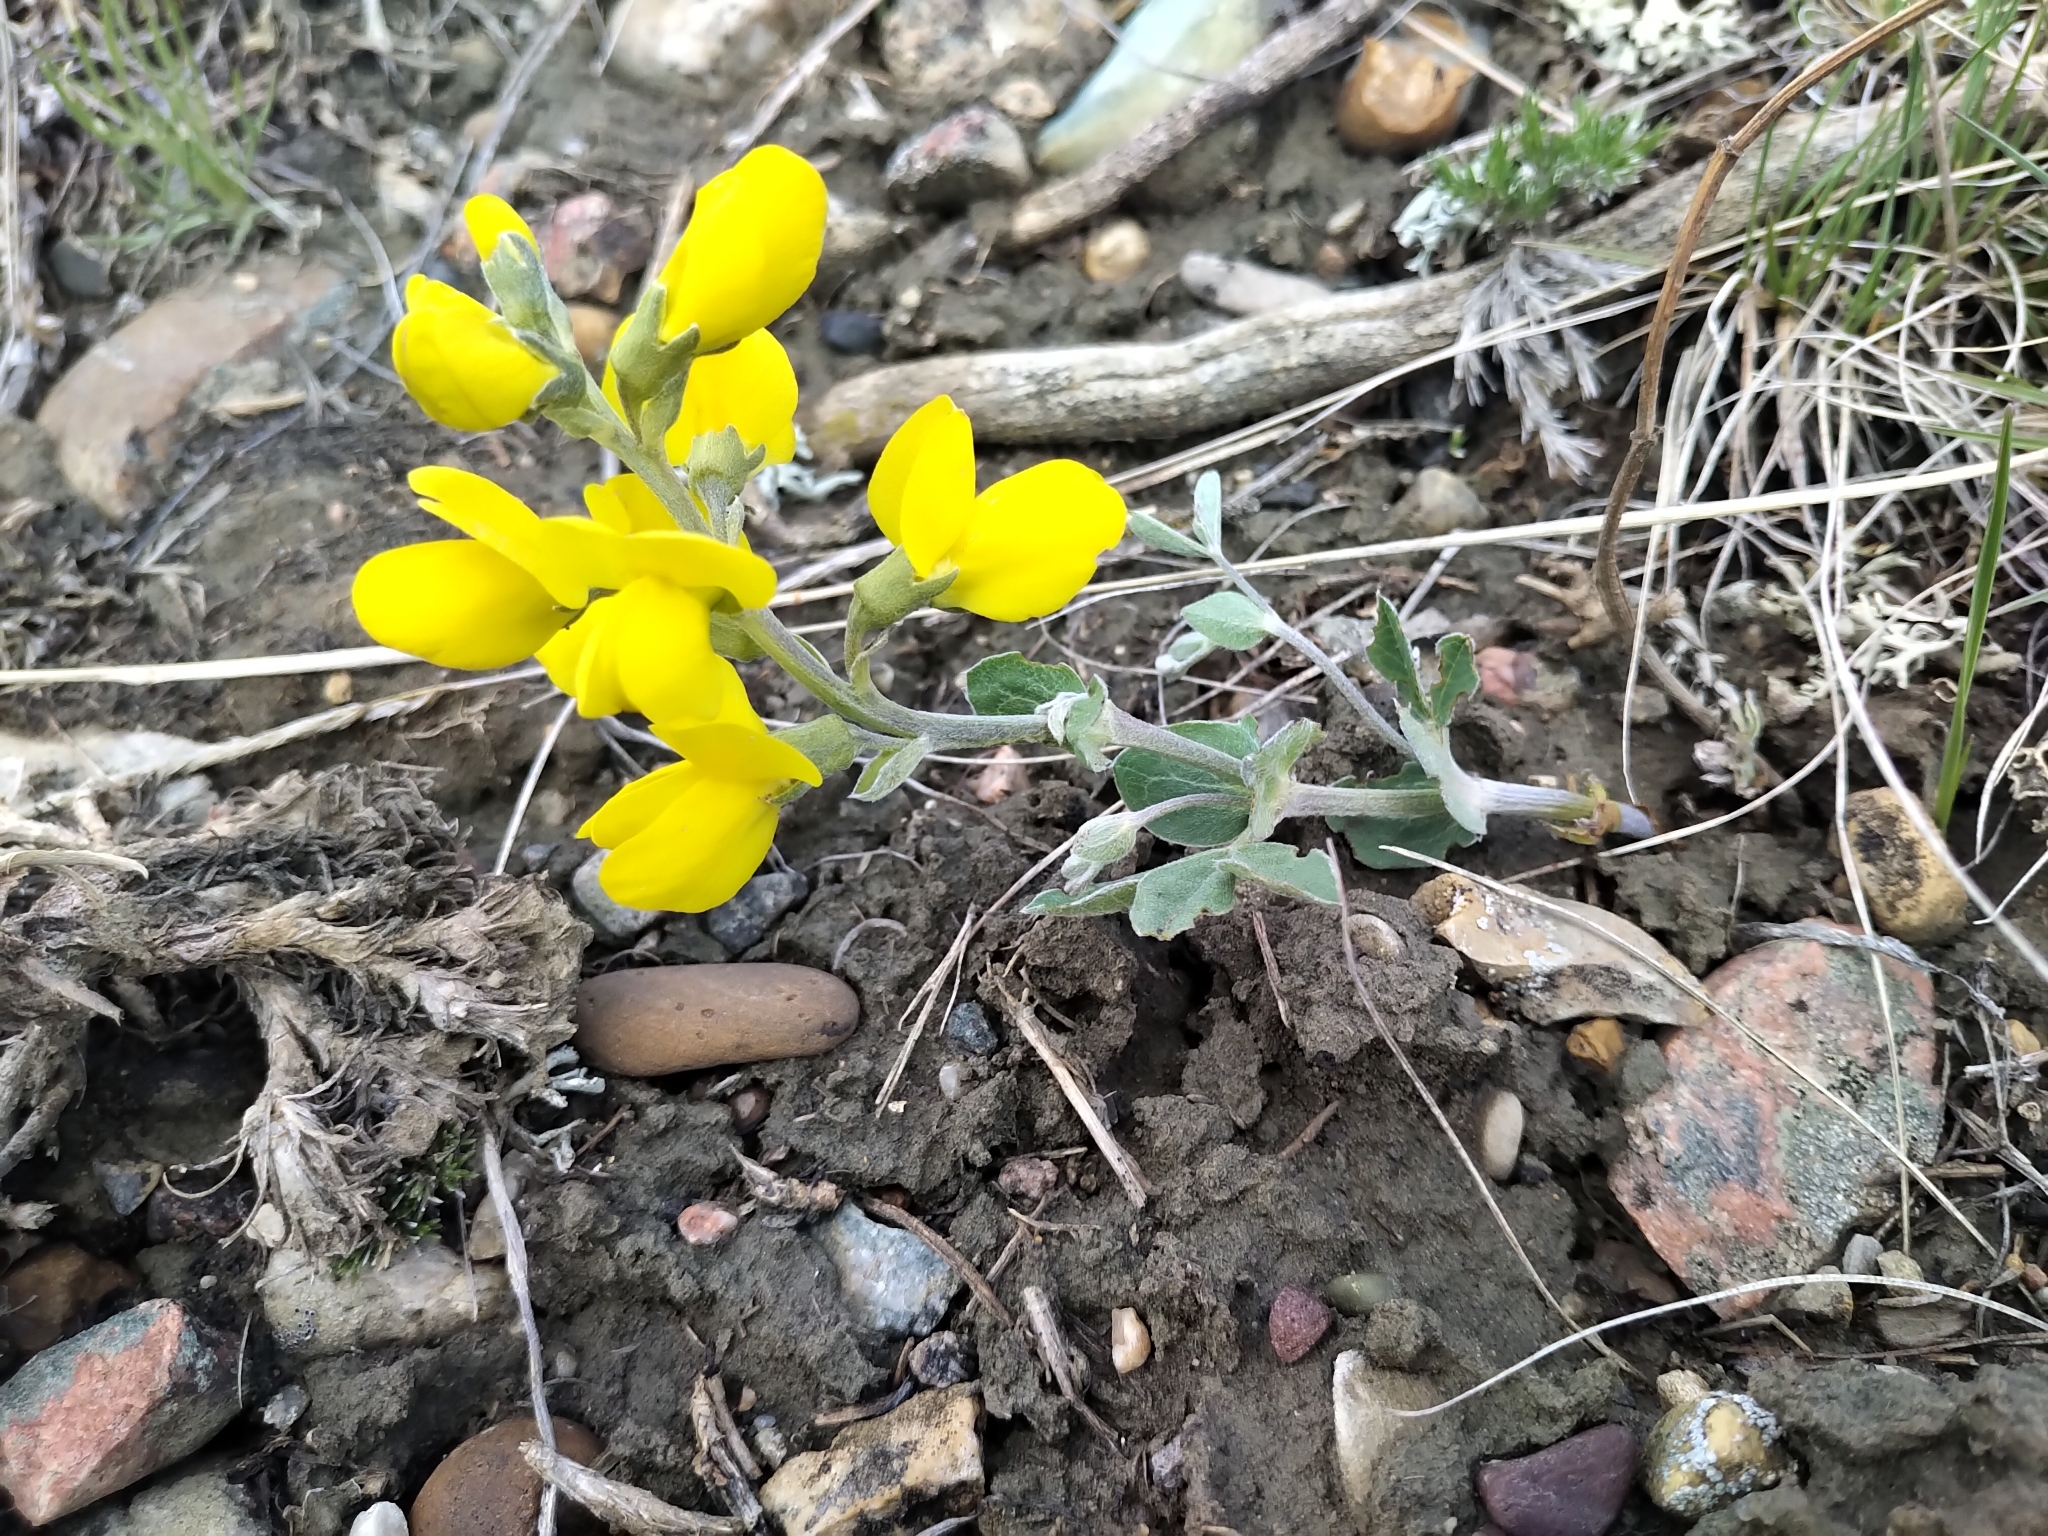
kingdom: Plantae
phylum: Tracheophyta
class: Magnoliopsida
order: Fabales
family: Fabaceae
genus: Thermopsis
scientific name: Thermopsis rhombifolia
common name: Circle-pod-pea
